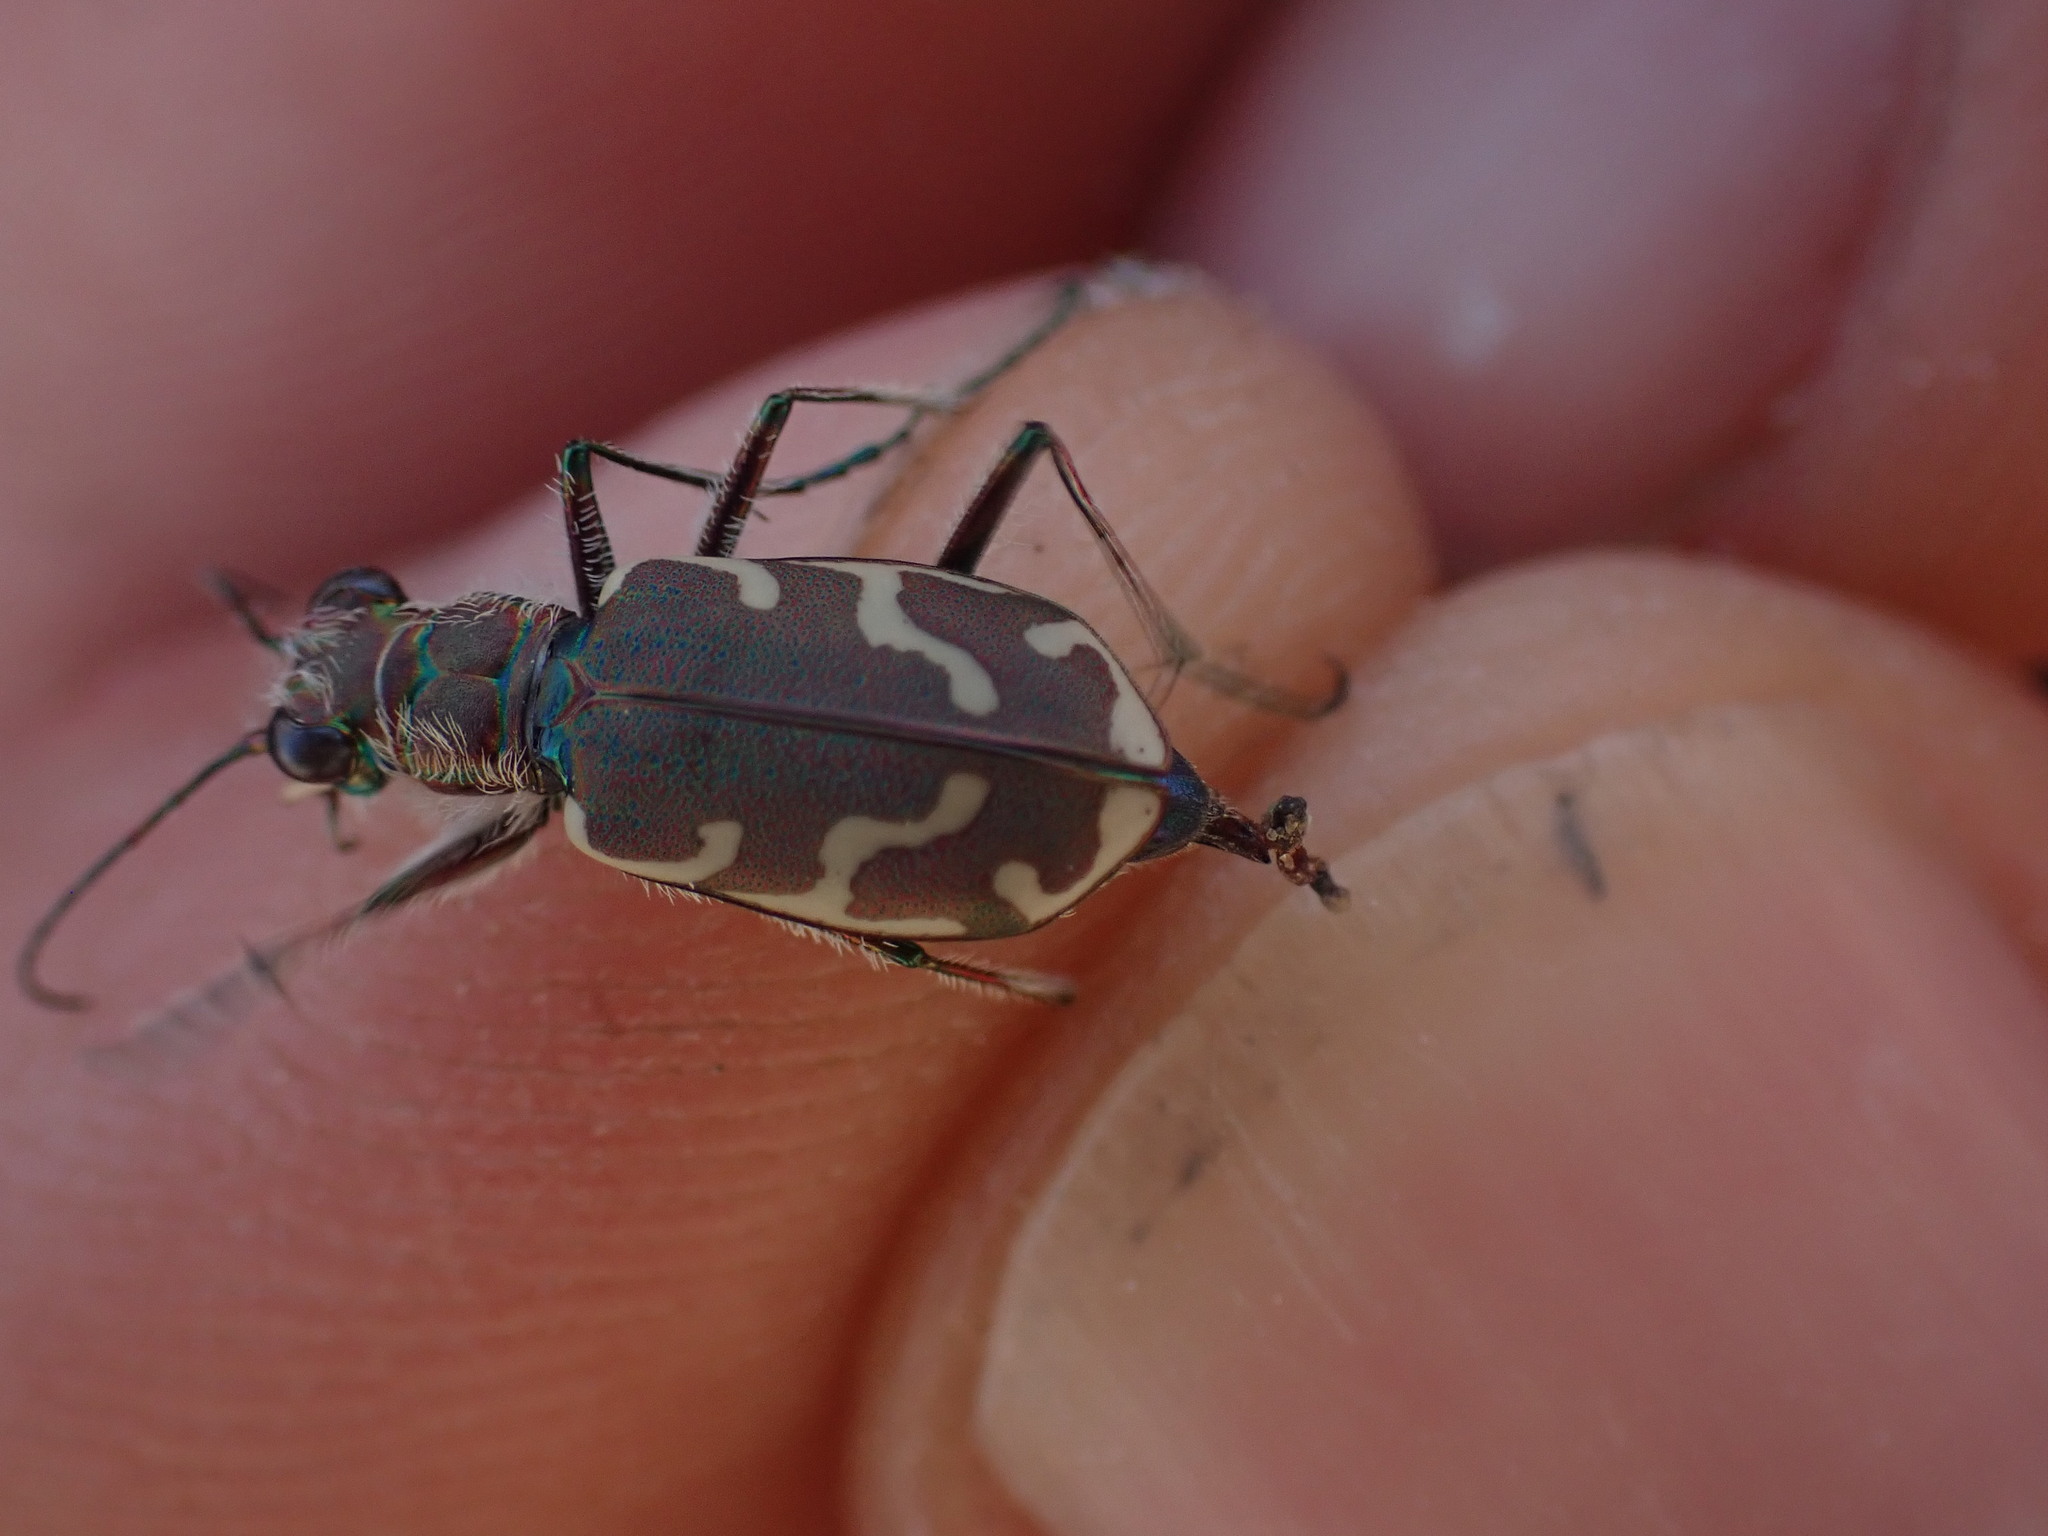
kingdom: Animalia
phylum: Arthropoda
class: Insecta
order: Coleoptera
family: Carabidae
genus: Cicindela
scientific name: Cicindela repanda
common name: Bronzed tiger beetle
